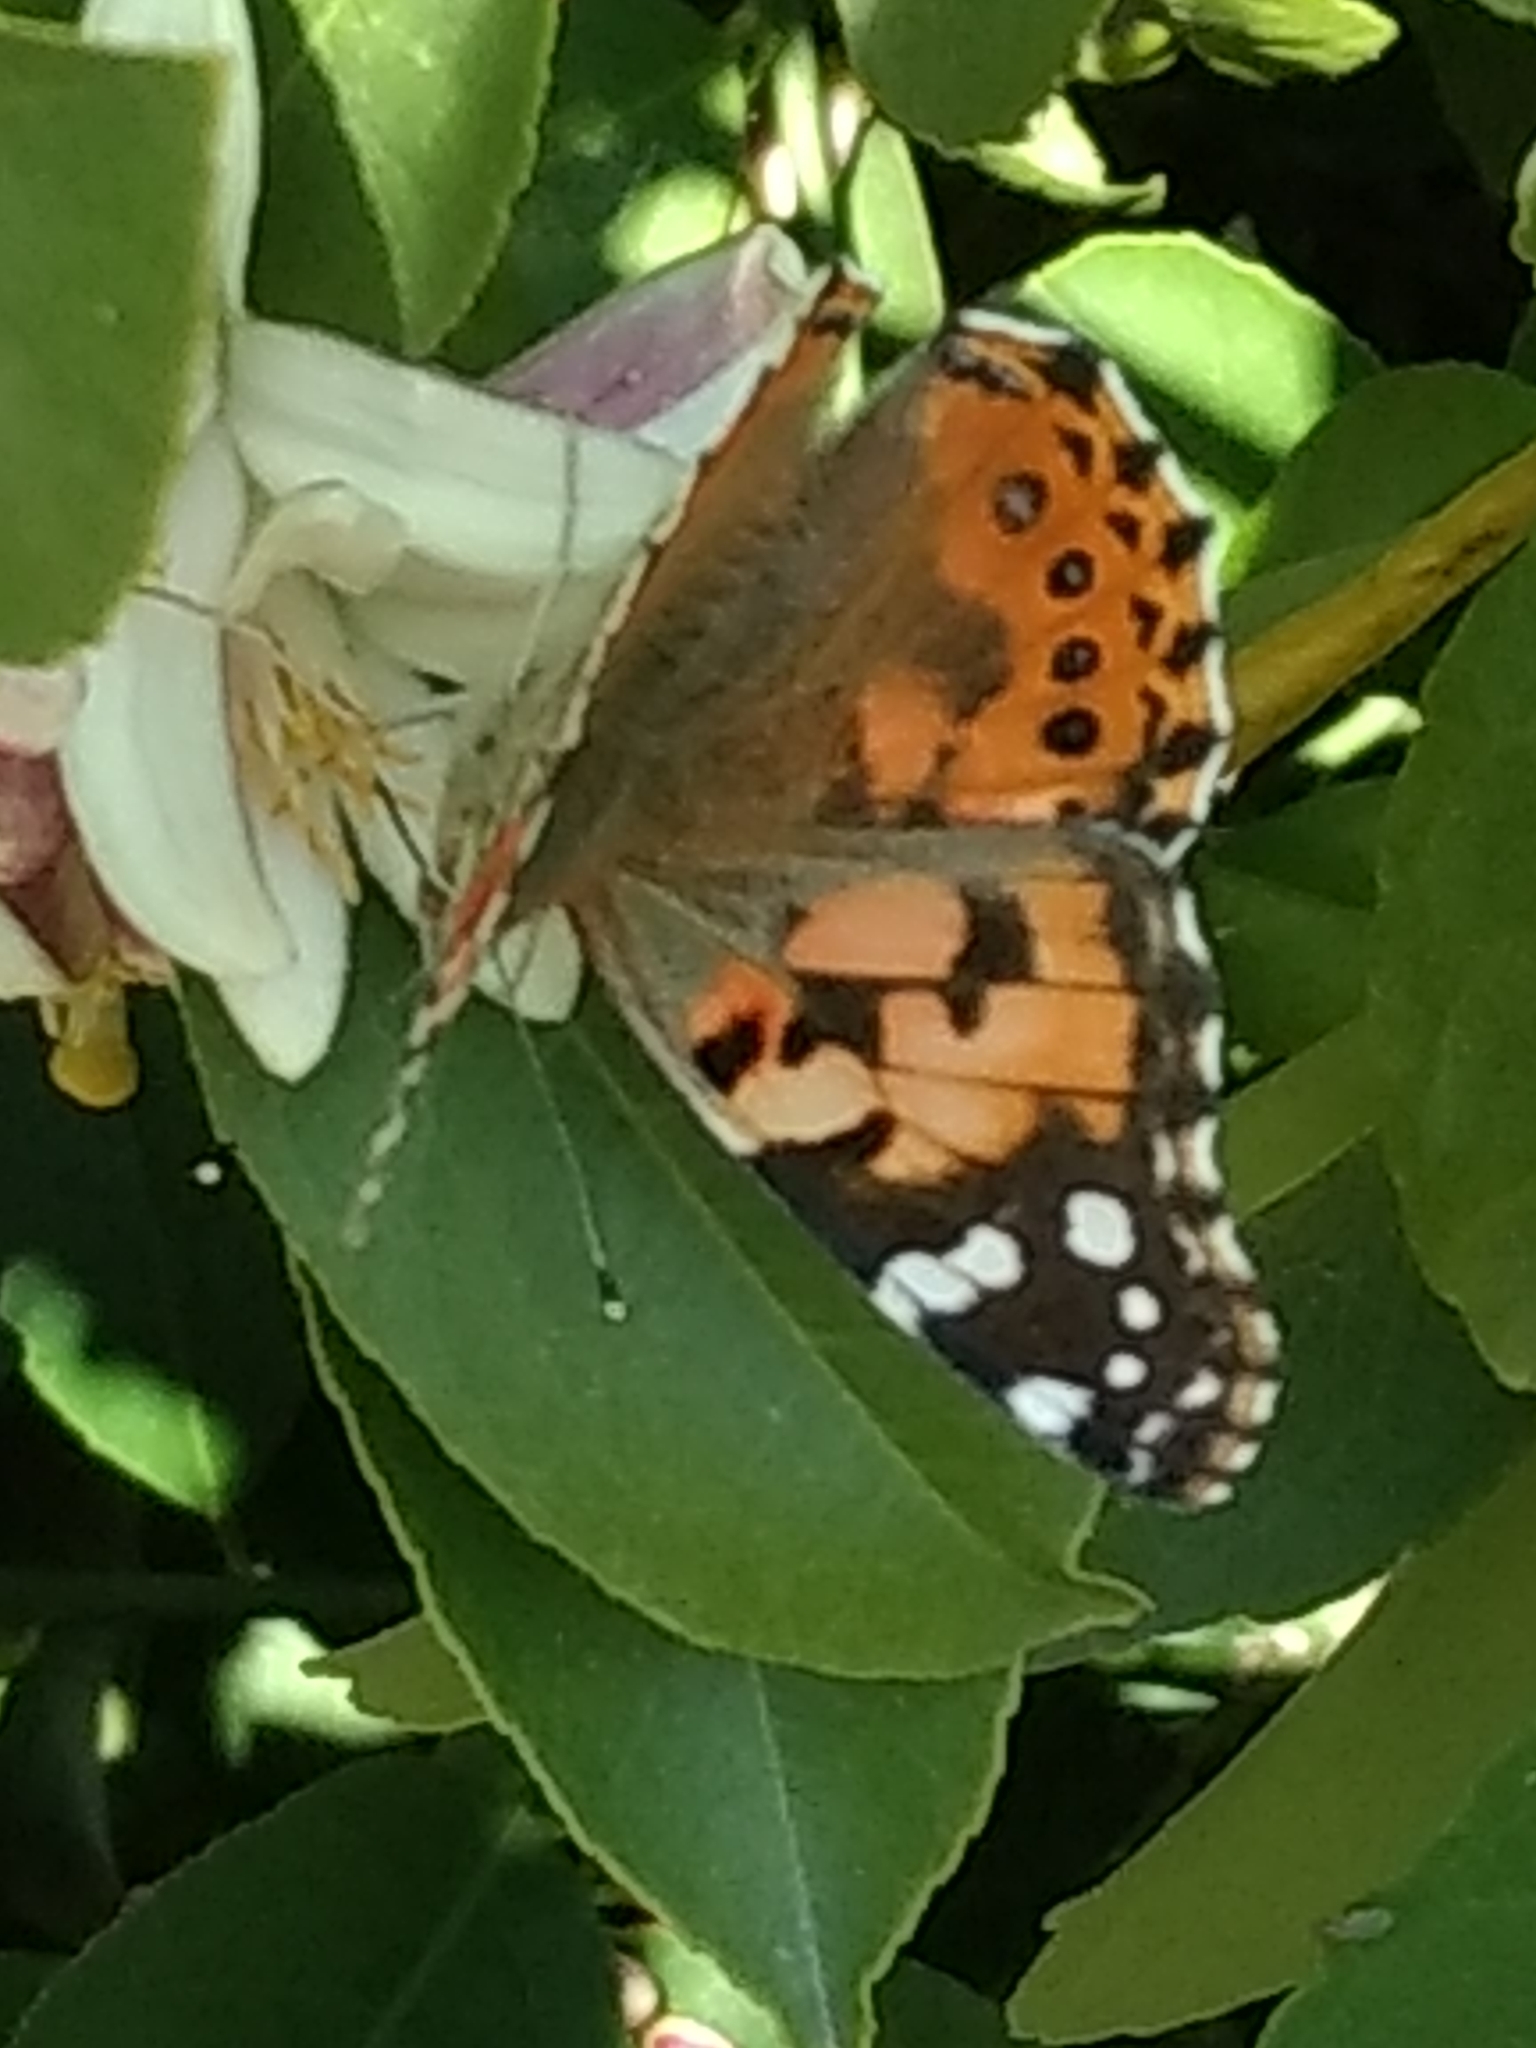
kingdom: Animalia
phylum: Arthropoda
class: Insecta
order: Lepidoptera
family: Nymphalidae
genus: Vanessa
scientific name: Vanessa cardui
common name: Painted lady
